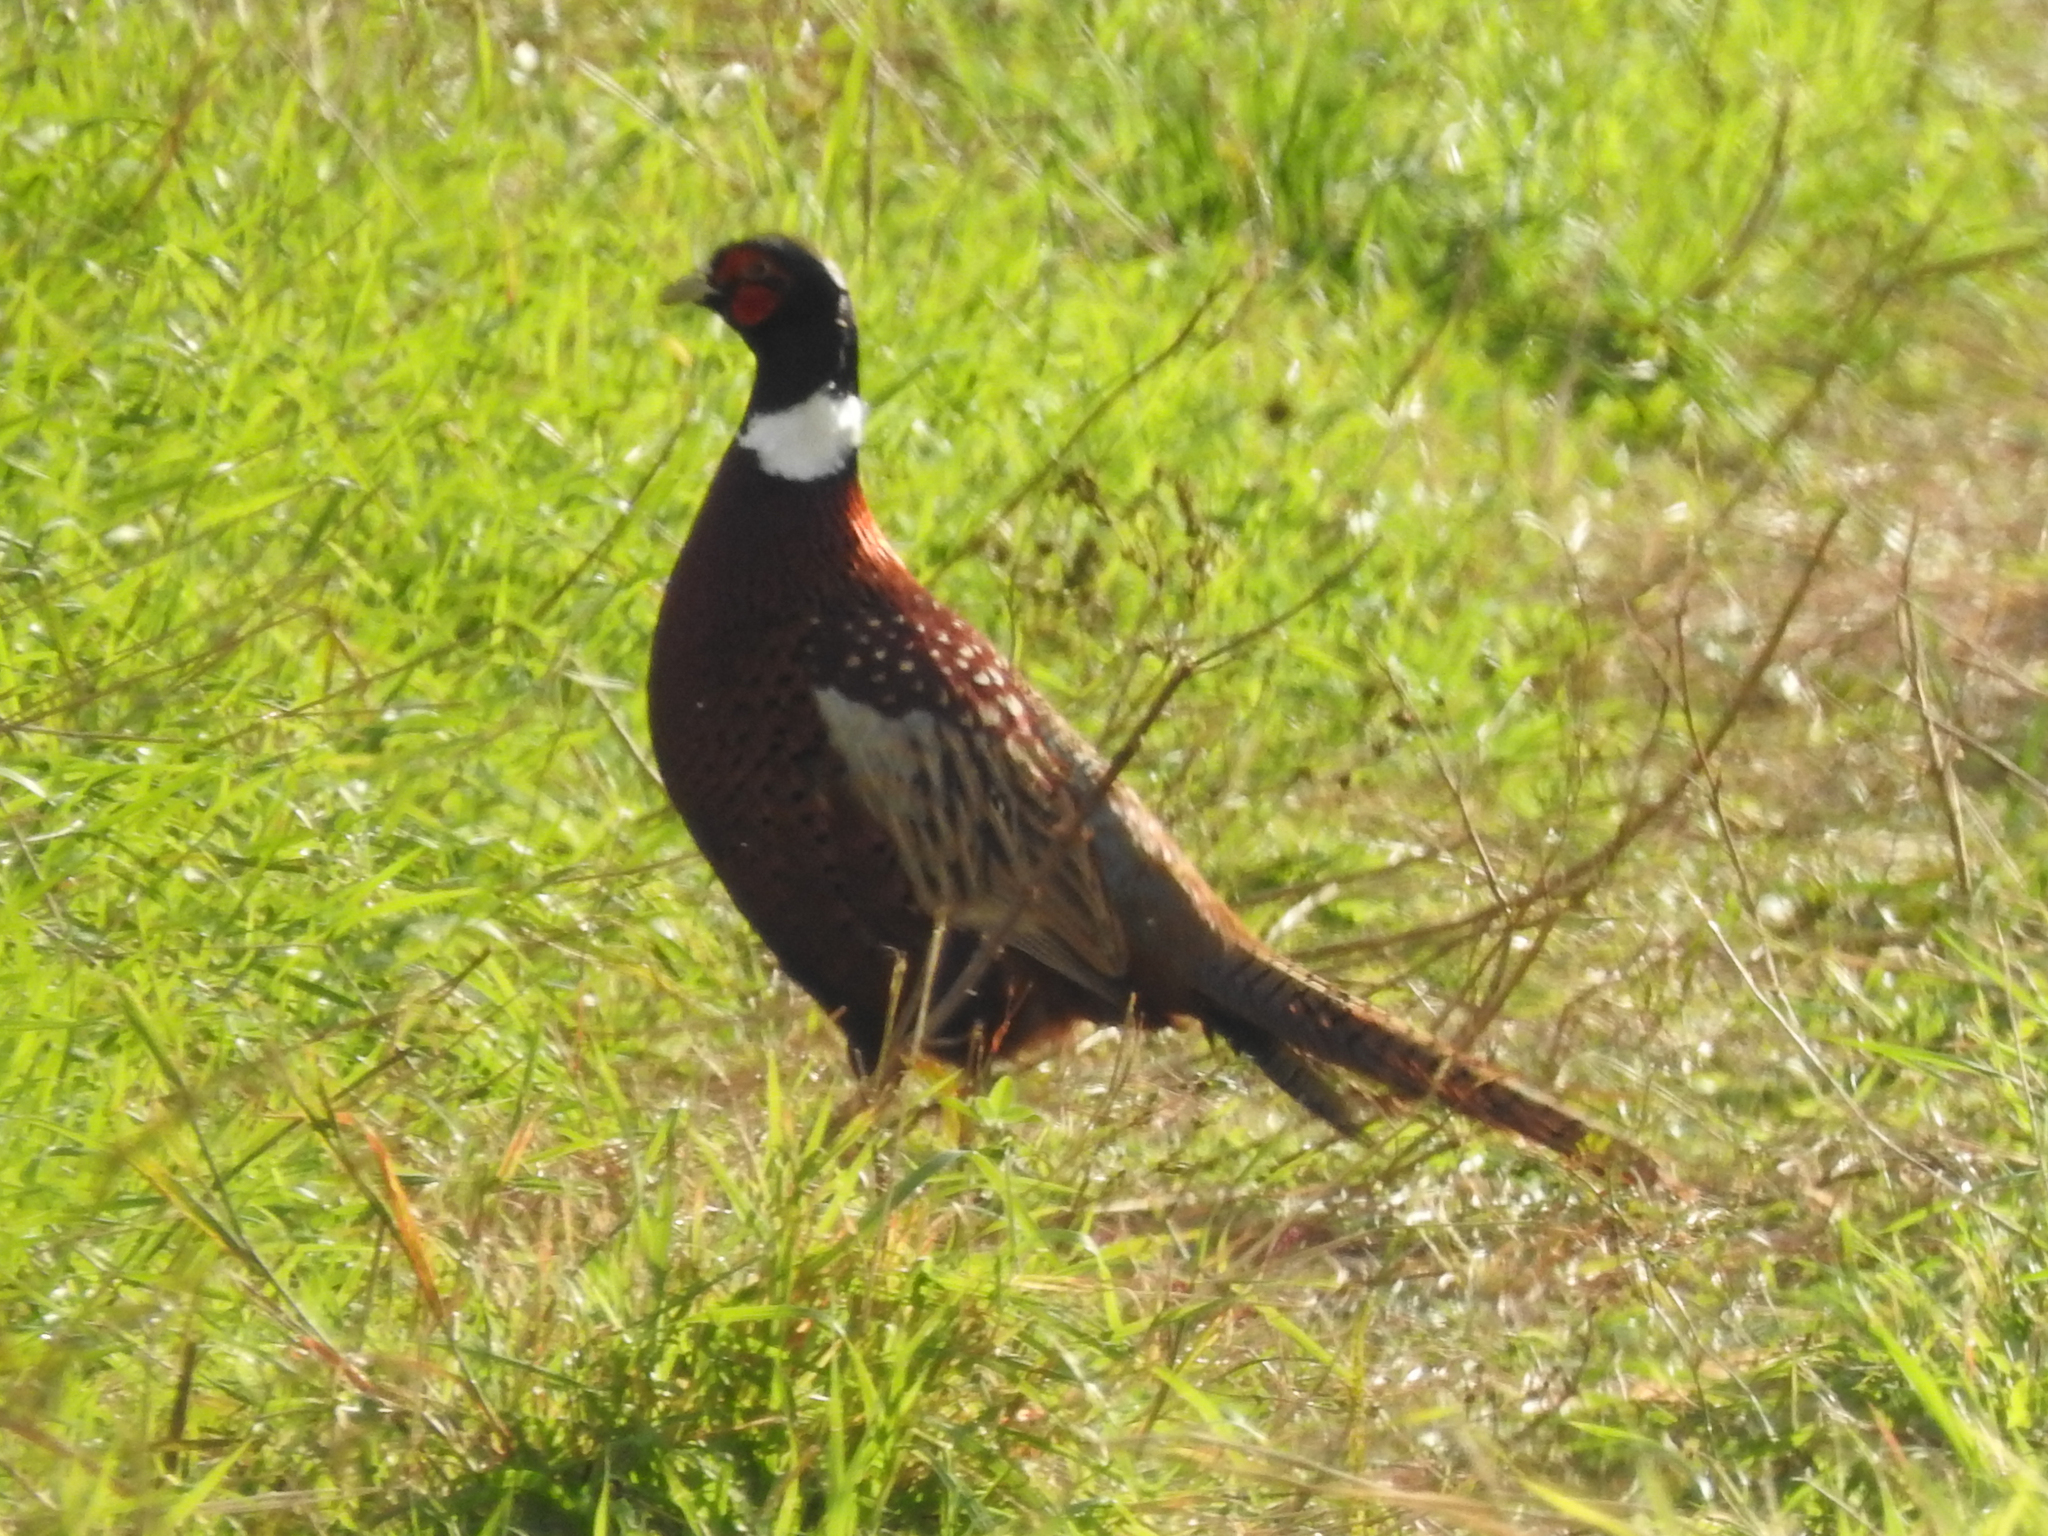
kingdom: Animalia
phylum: Chordata
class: Aves
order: Galliformes
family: Phasianidae
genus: Phasianus
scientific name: Phasianus colchicus
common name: Common pheasant
